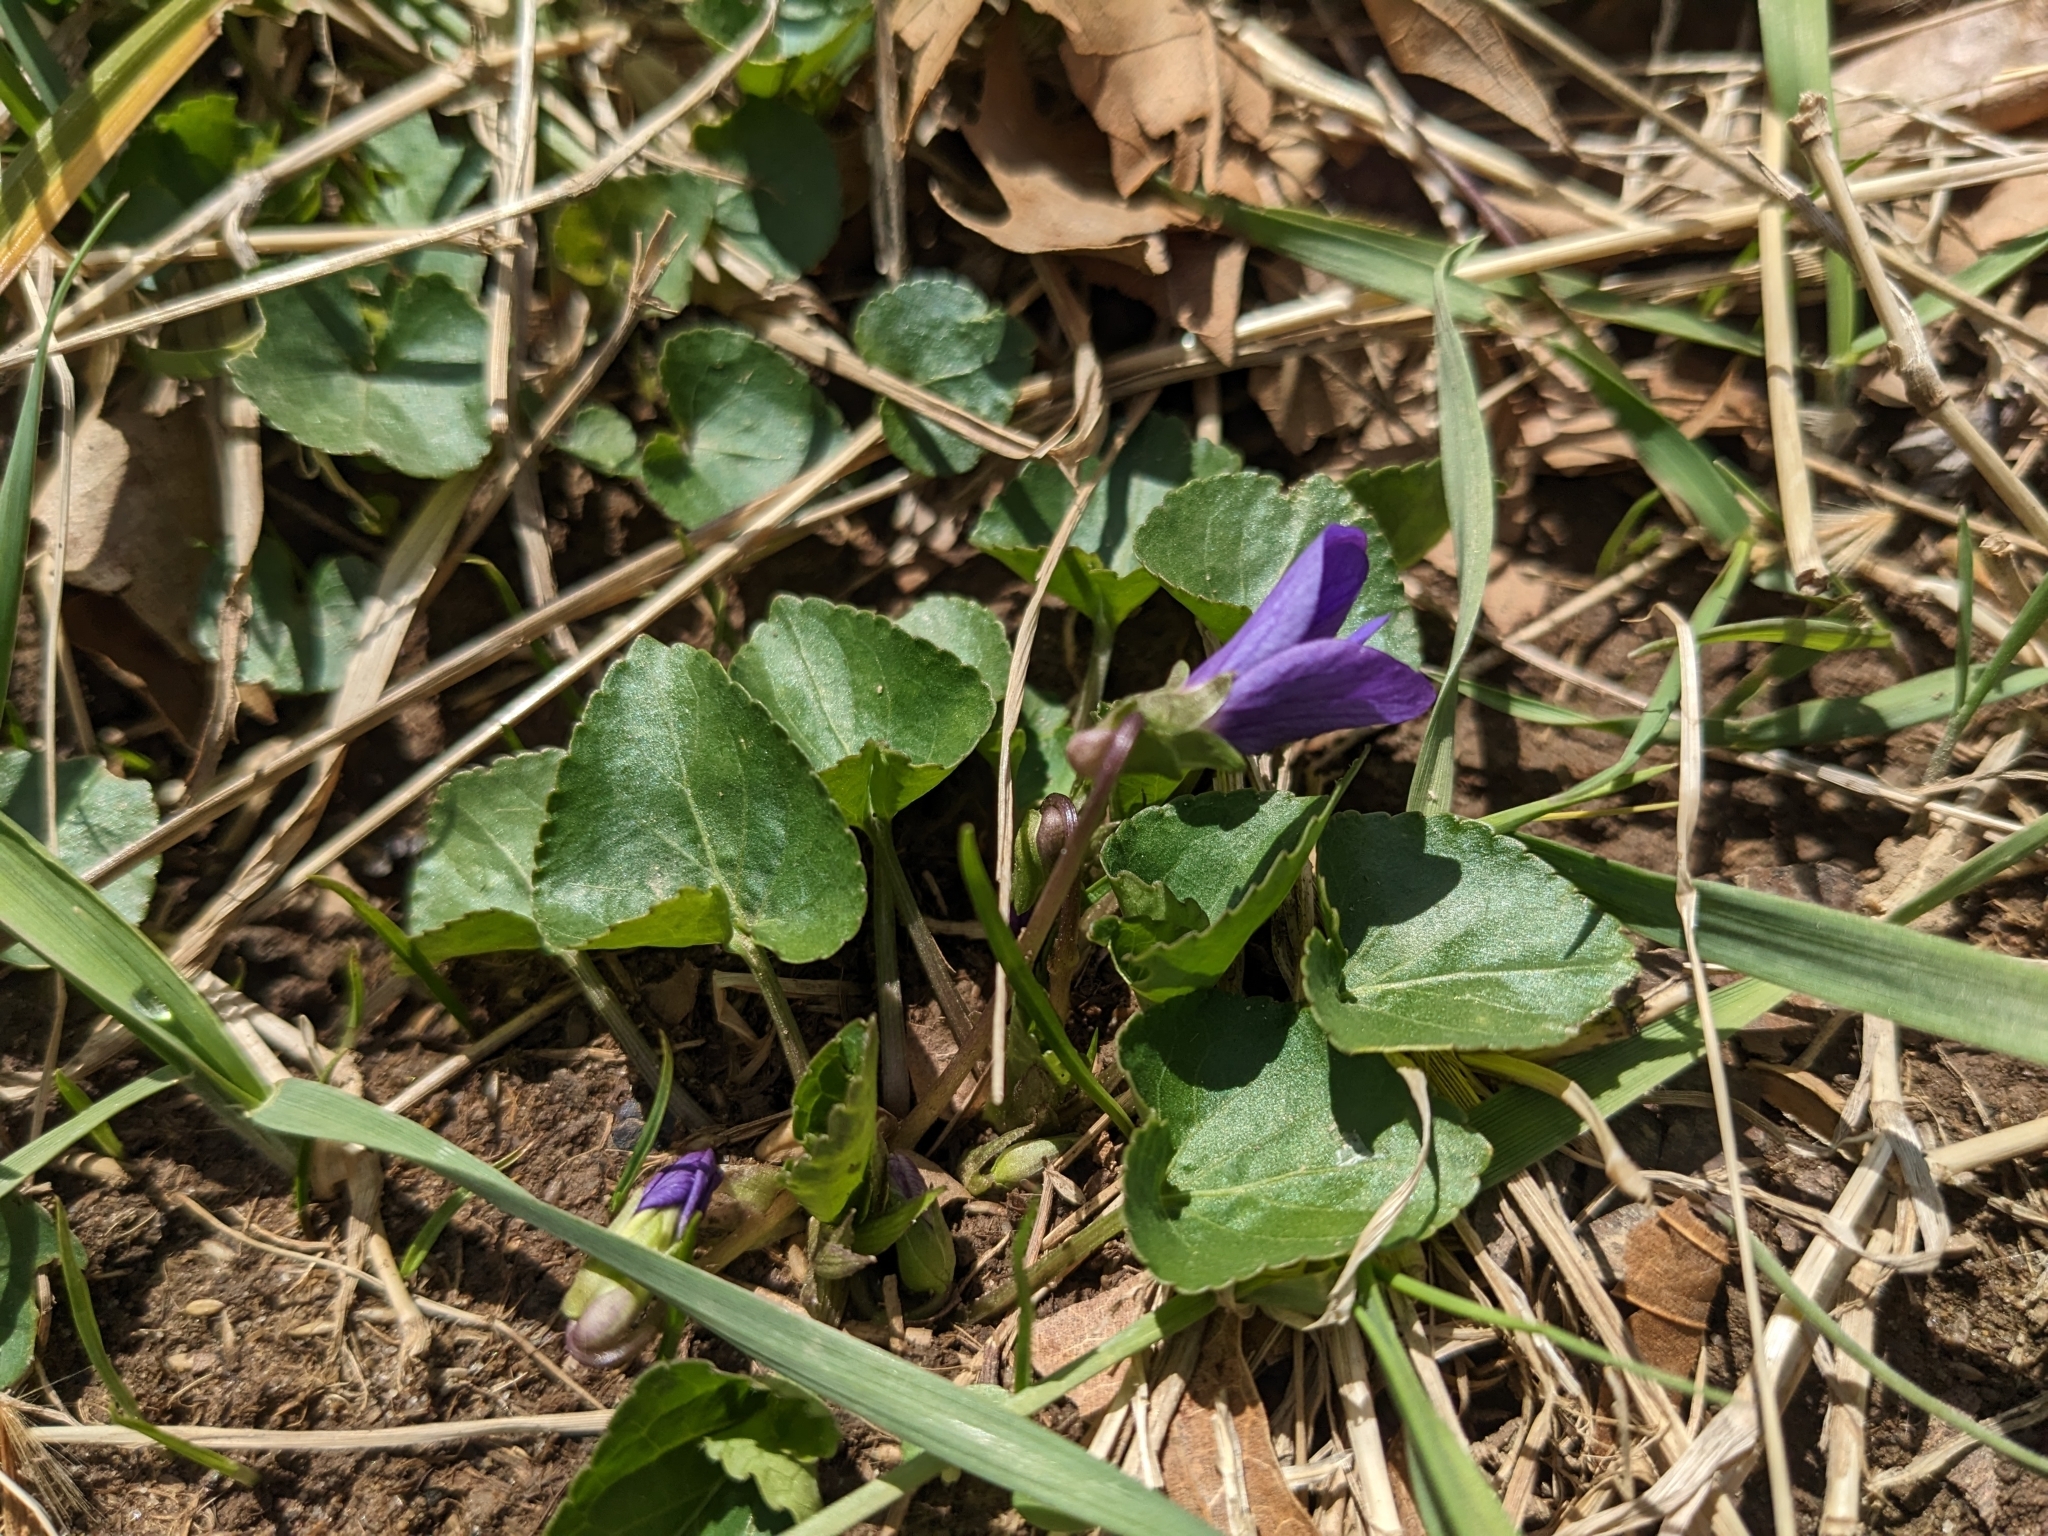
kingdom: Plantae
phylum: Tracheophyta
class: Magnoliopsida
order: Malpighiales
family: Violaceae
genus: Viola
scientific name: Viola sororia
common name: Dooryard violet
